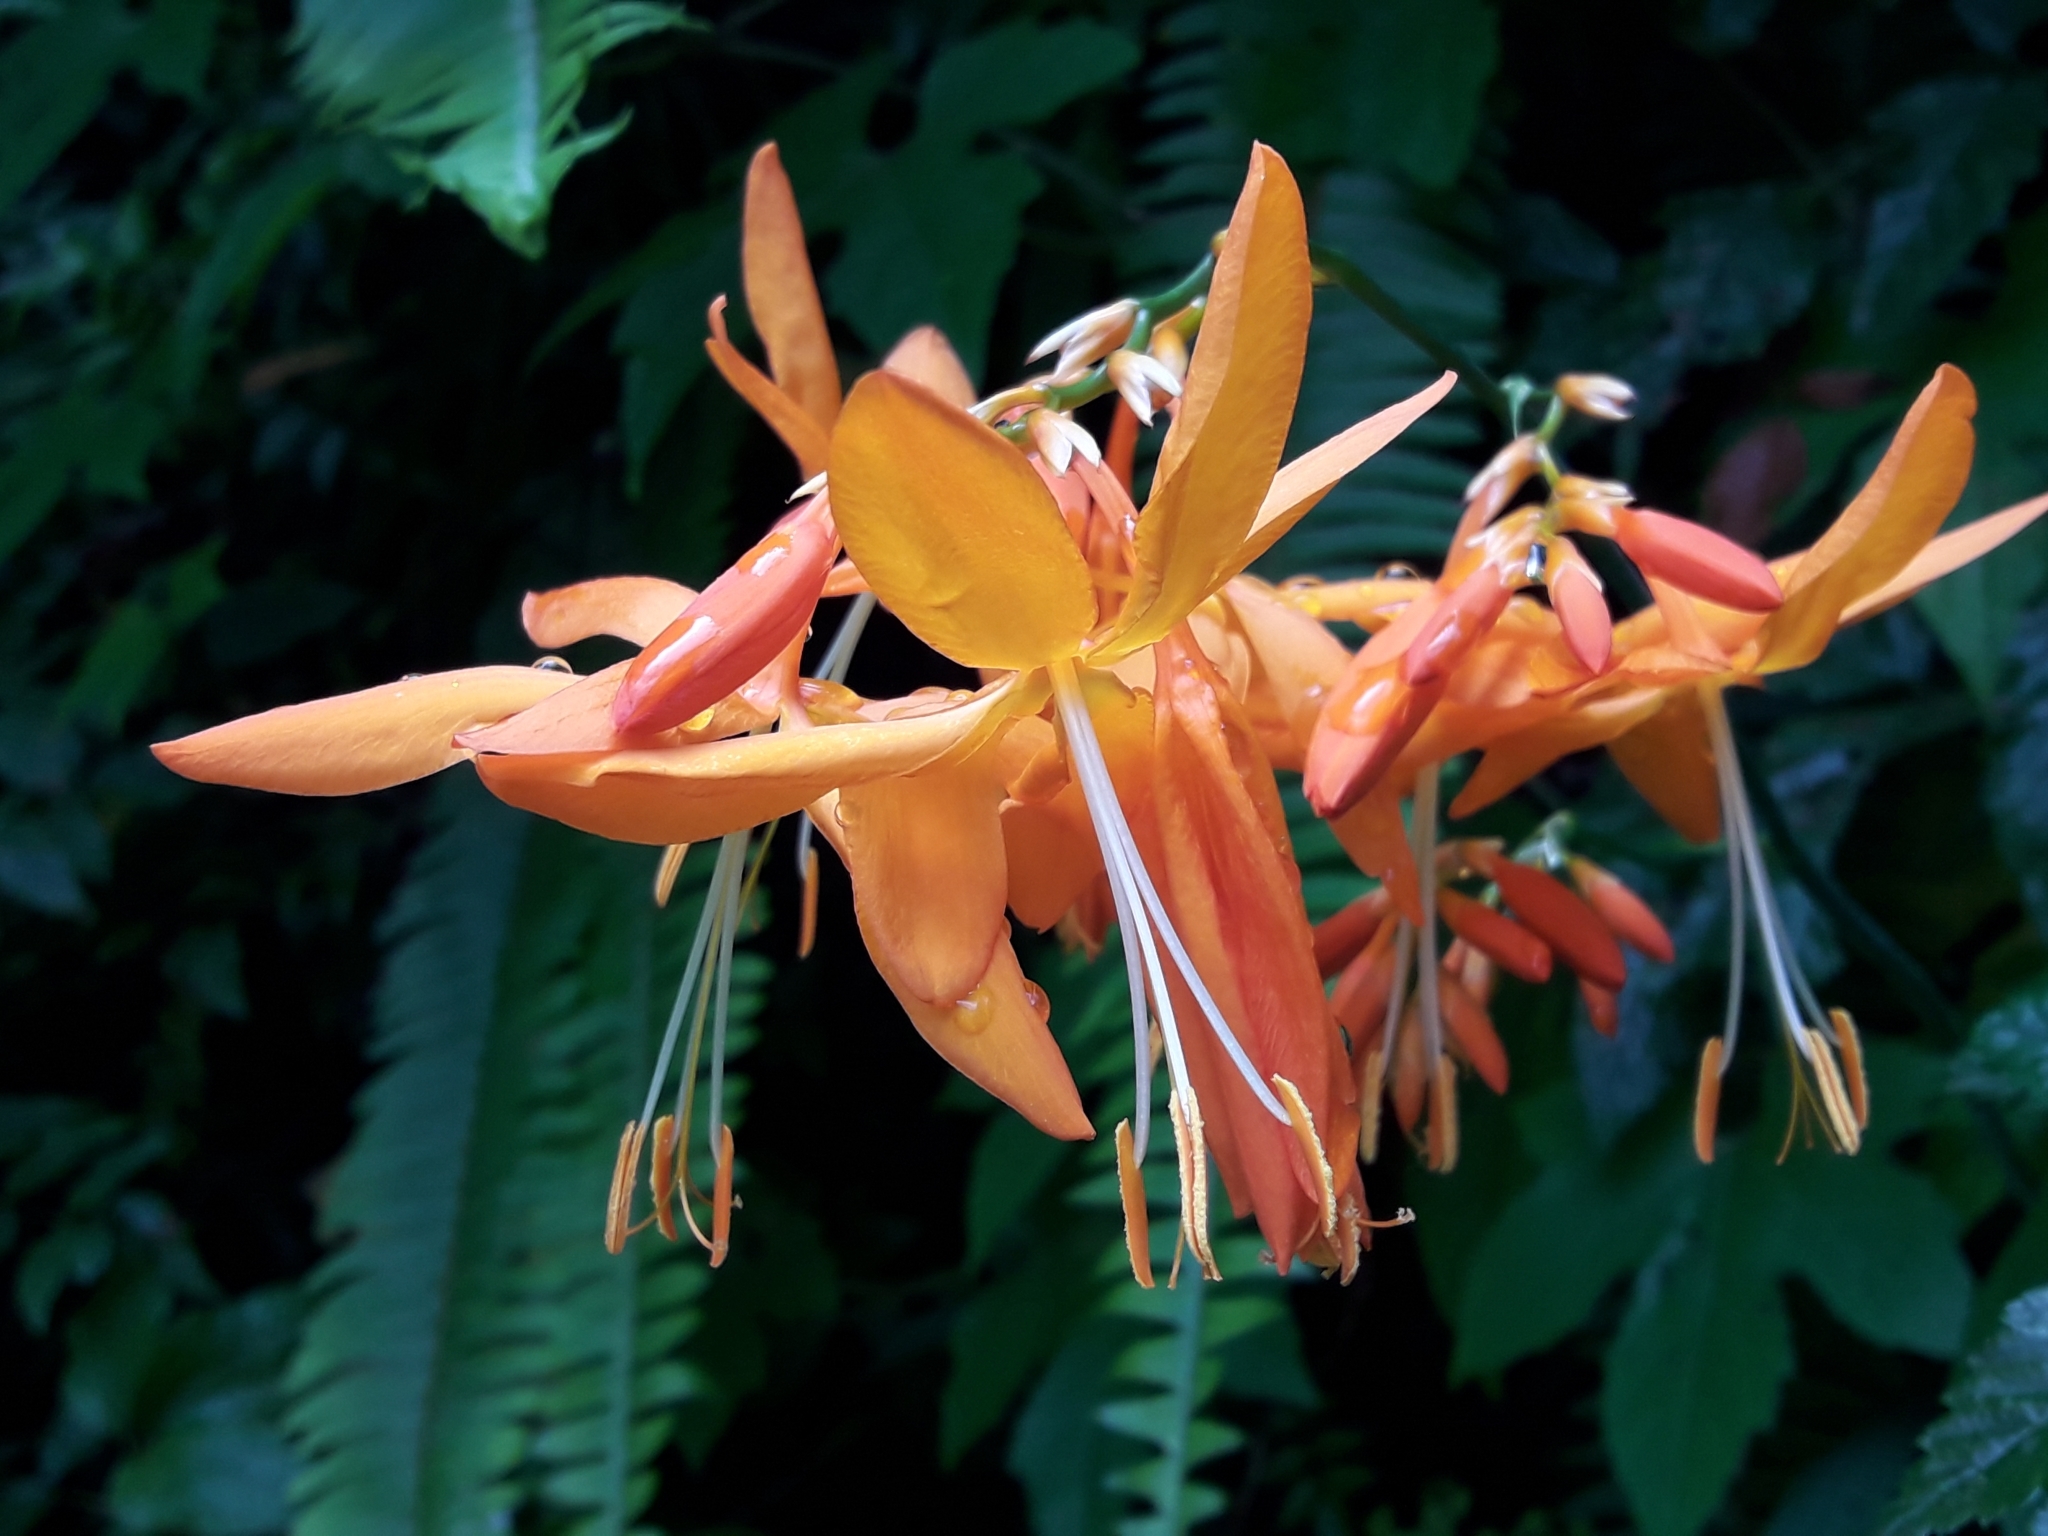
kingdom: Plantae
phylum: Tracheophyta
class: Liliopsida
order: Asparagales
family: Iridaceae
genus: Crocosmia
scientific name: Crocosmia aurea
